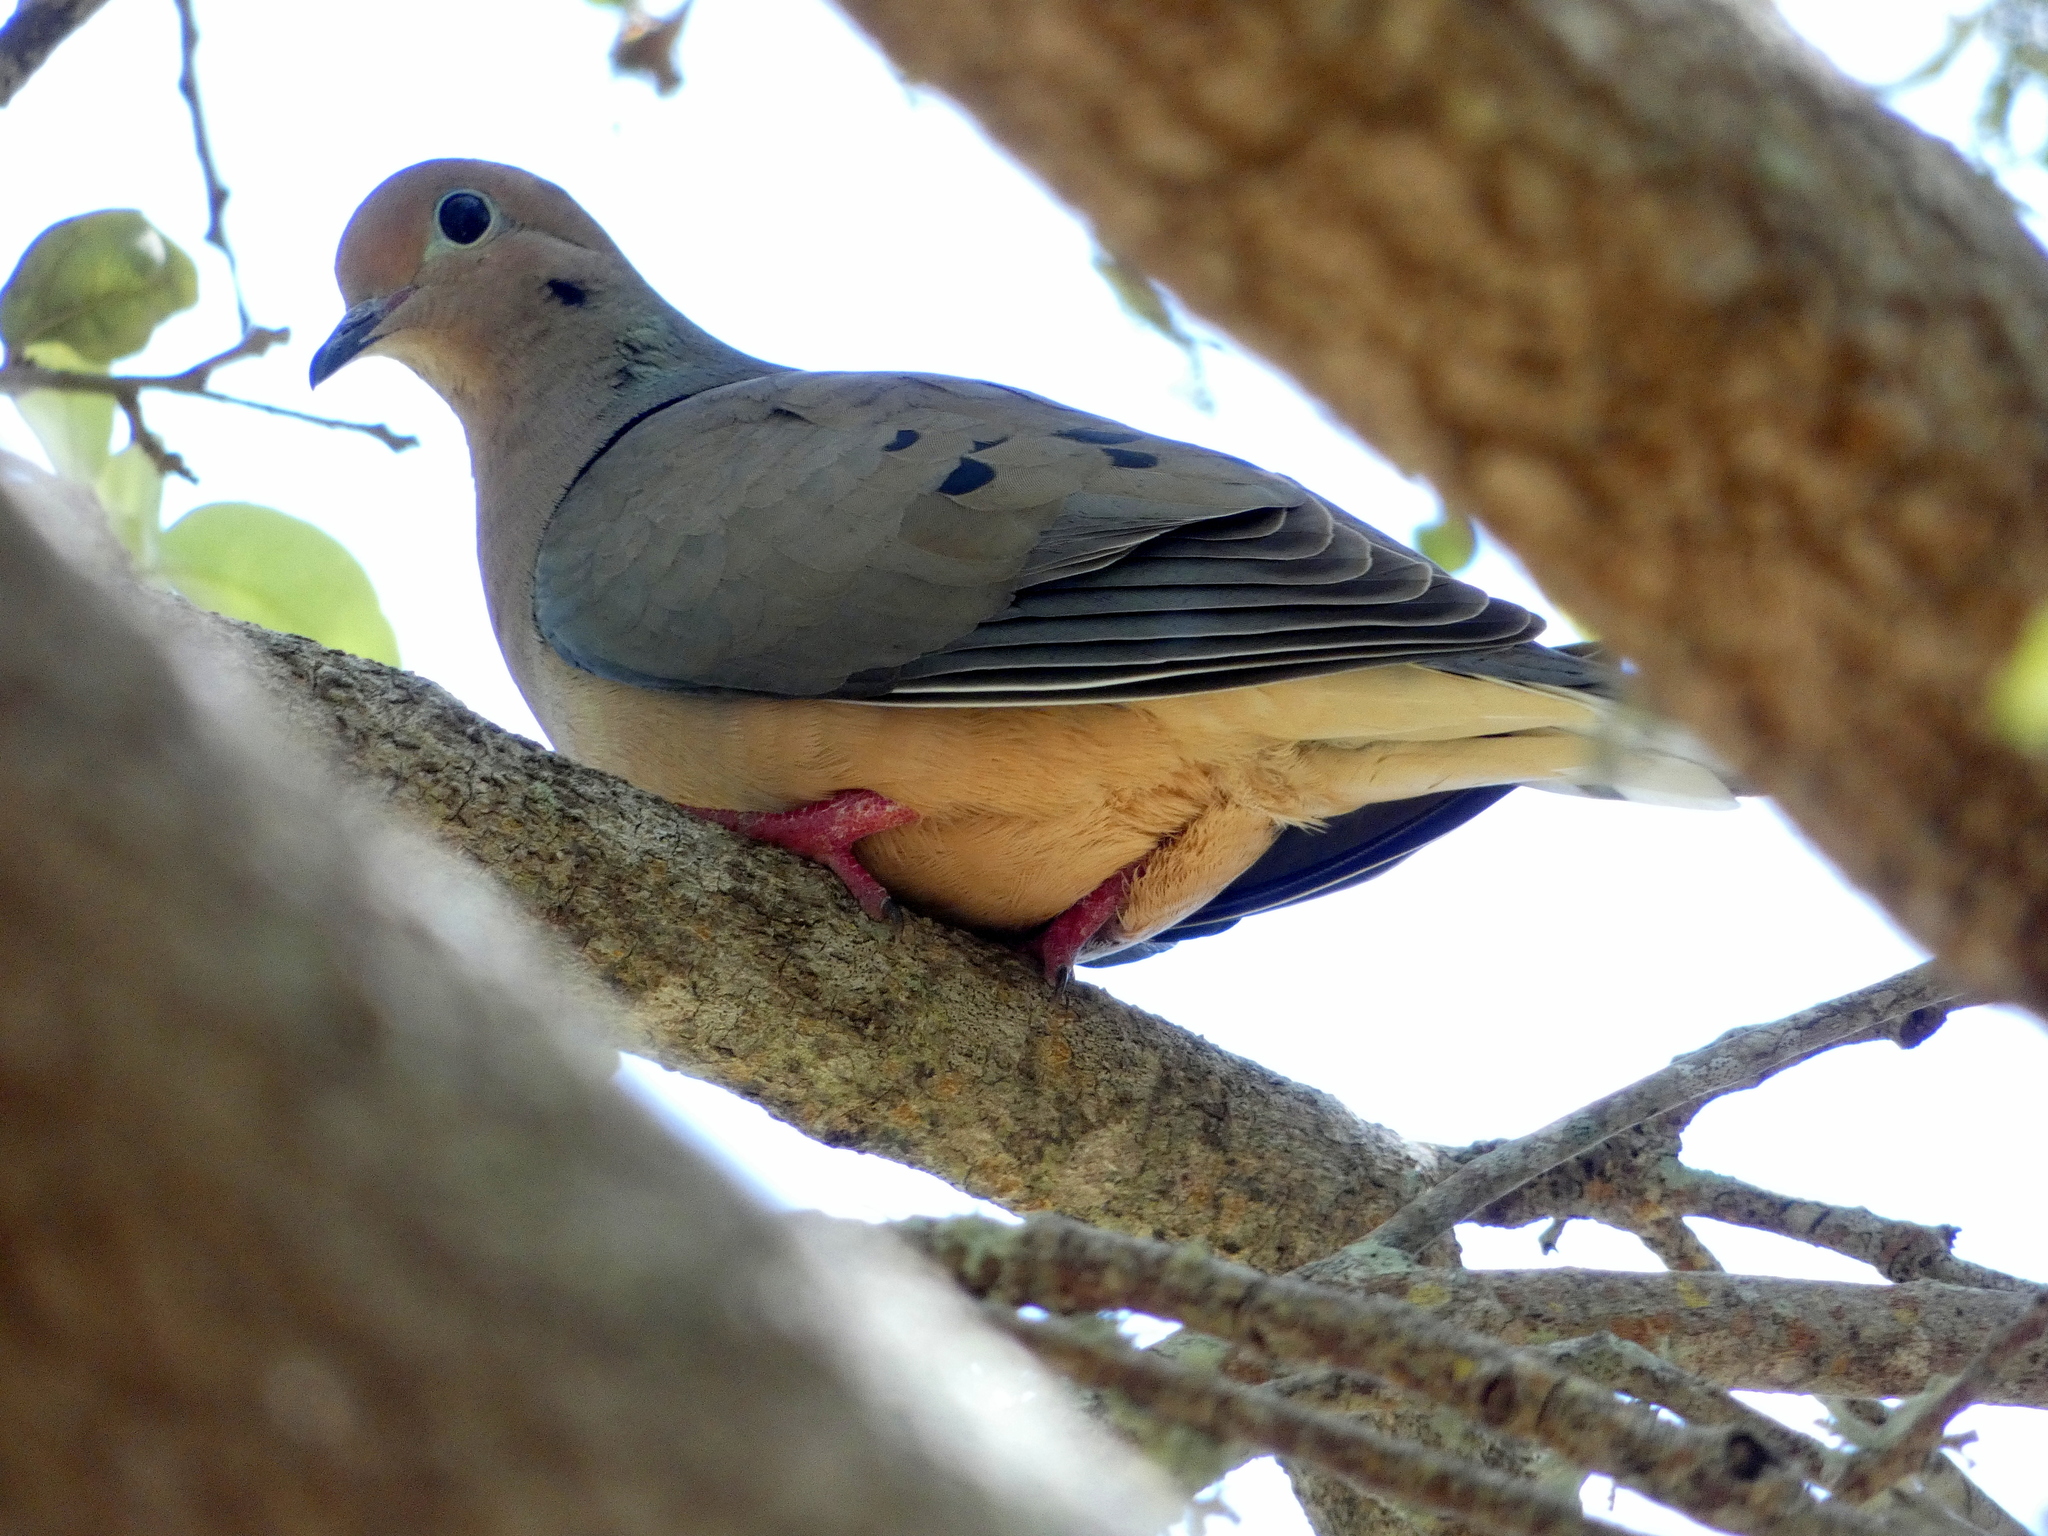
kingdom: Animalia
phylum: Chordata
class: Aves
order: Columbiformes
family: Columbidae
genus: Zenaida
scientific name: Zenaida macroura
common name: Mourning dove
